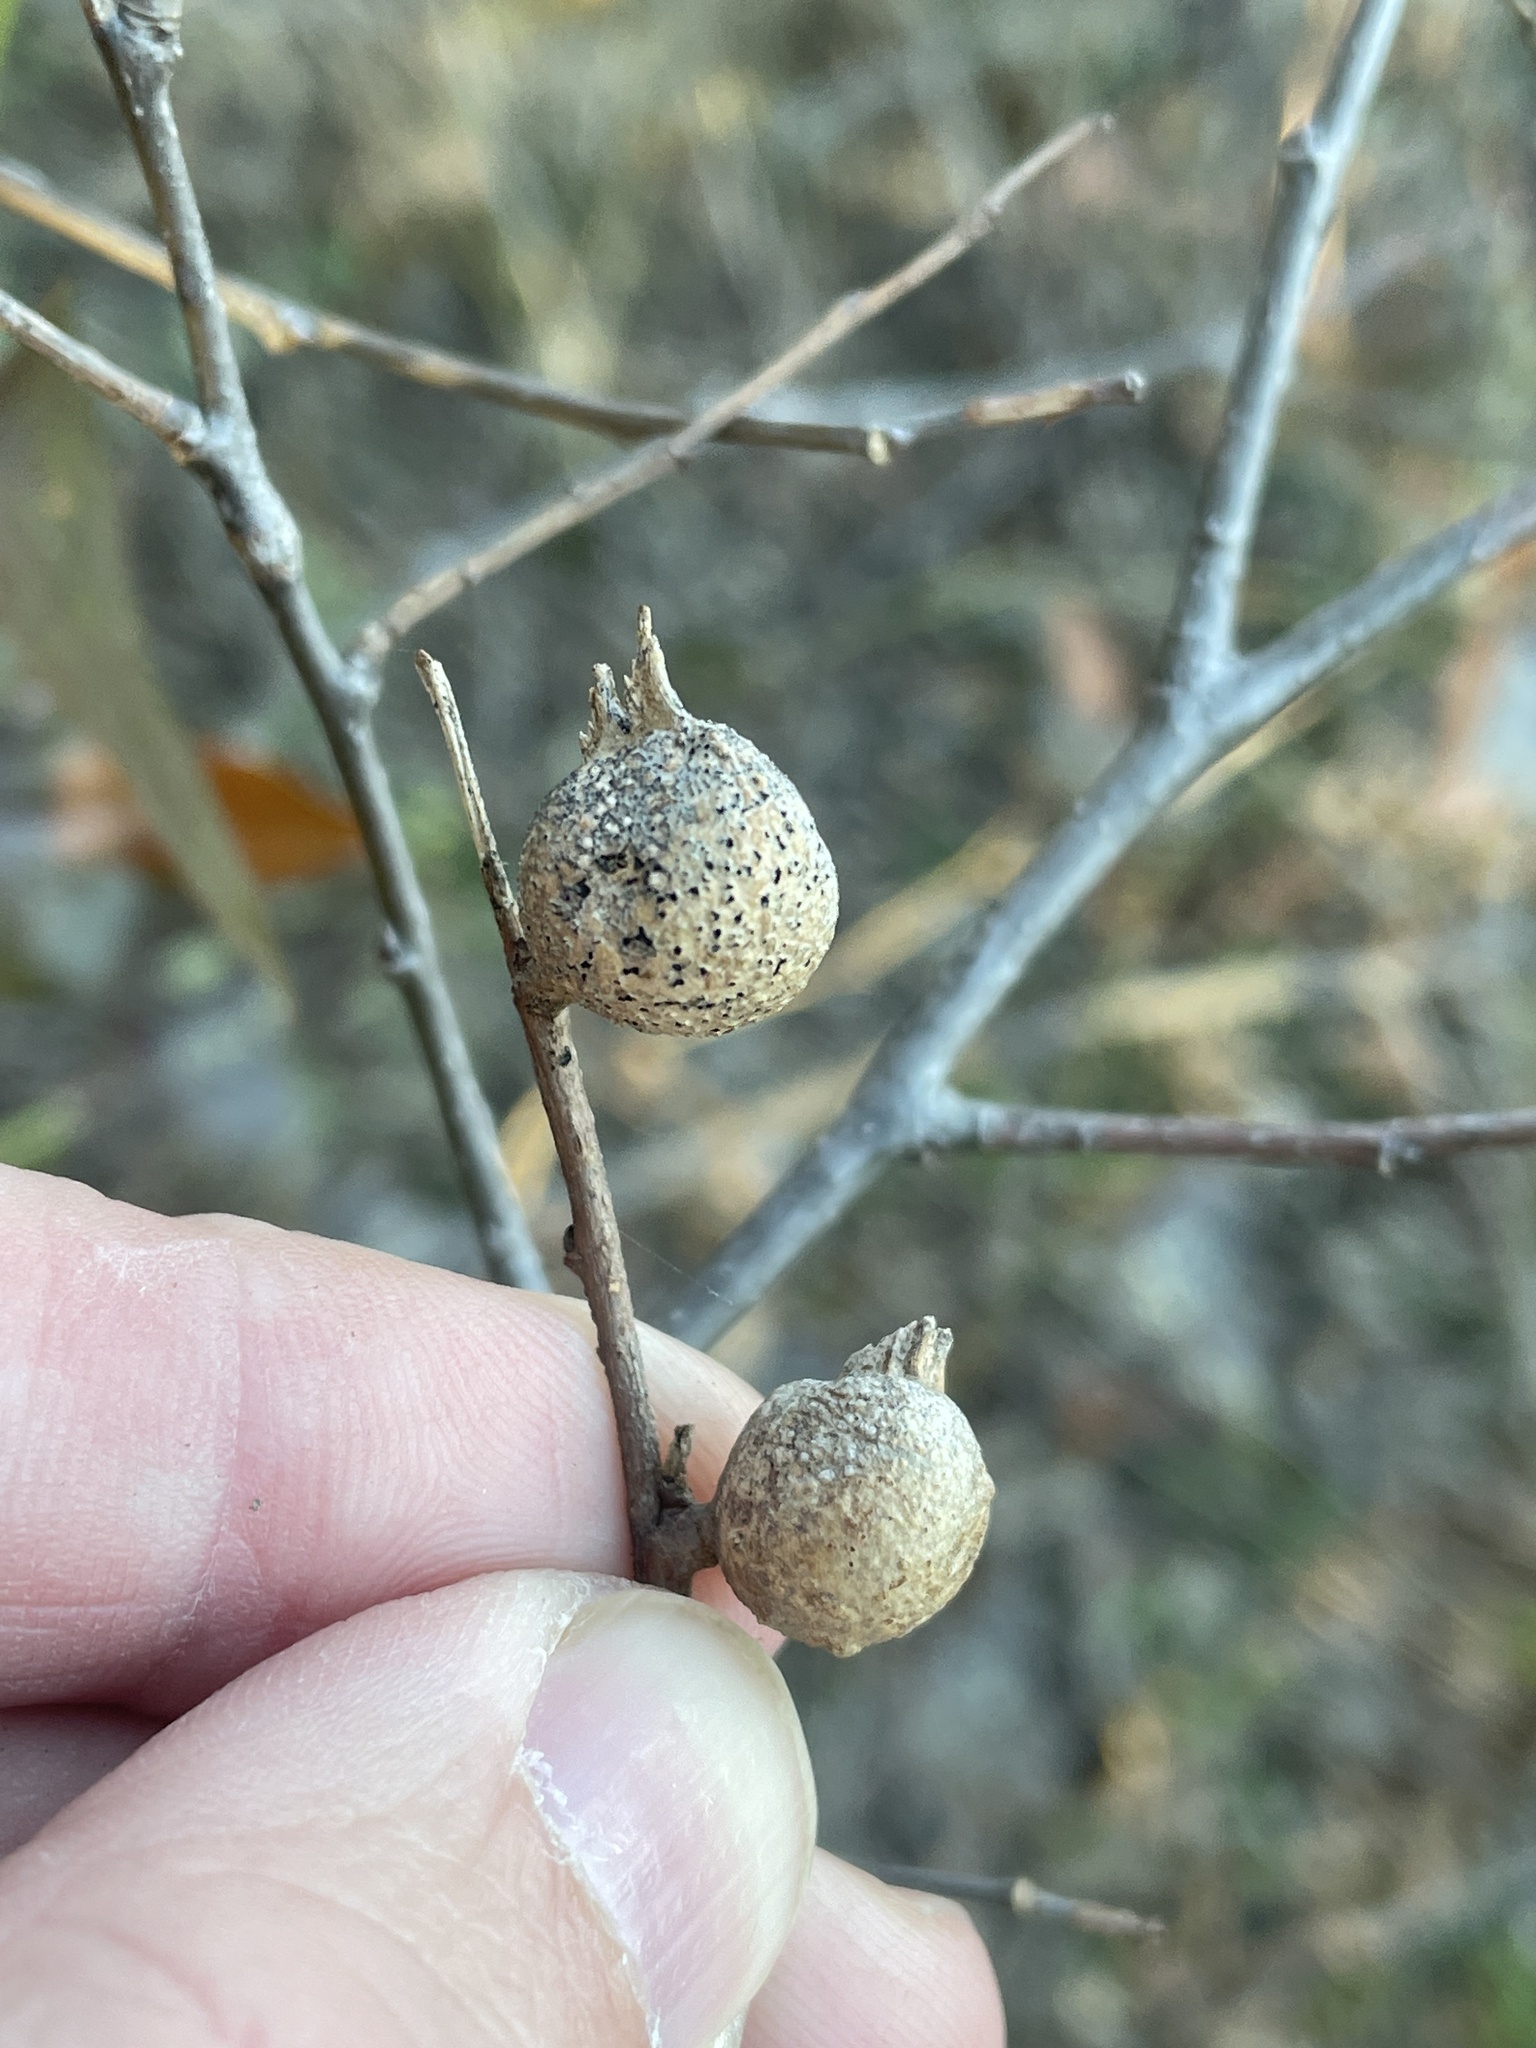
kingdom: Animalia
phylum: Arthropoda
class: Insecta
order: Hemiptera
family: Aphalaridae
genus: Pachypsylla
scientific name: Pachypsylla venusta
